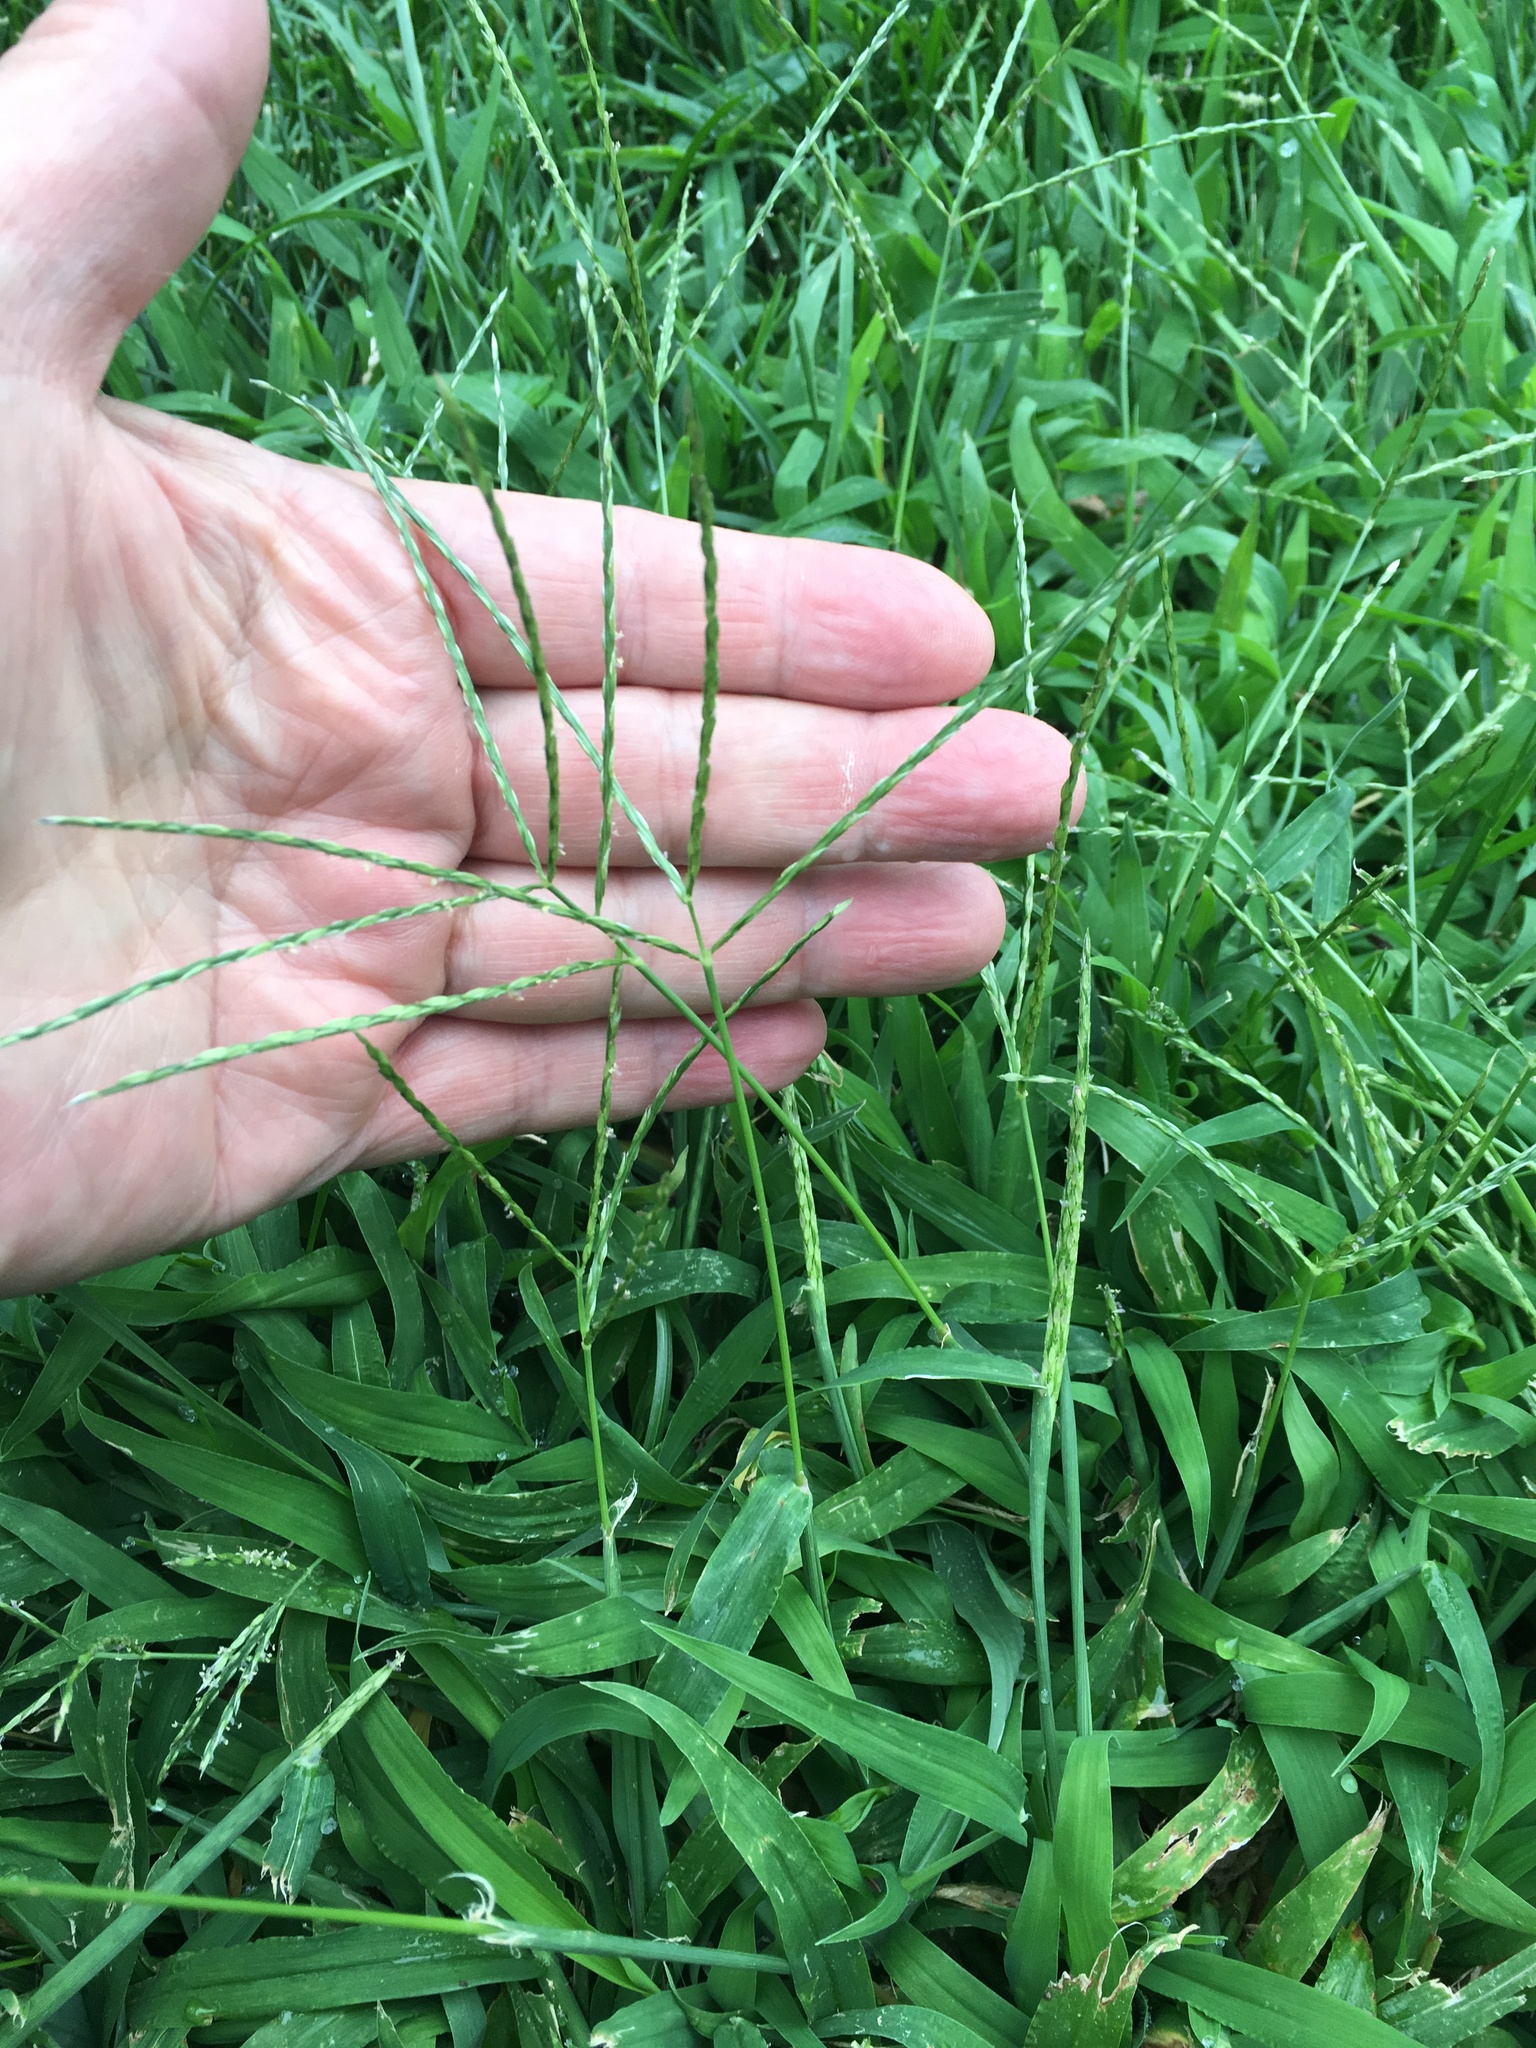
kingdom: Plantae
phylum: Tracheophyta
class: Liliopsida
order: Poales
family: Poaceae
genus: Digitaria
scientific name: Digitaria ischaemum
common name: Smooth crabgrass
